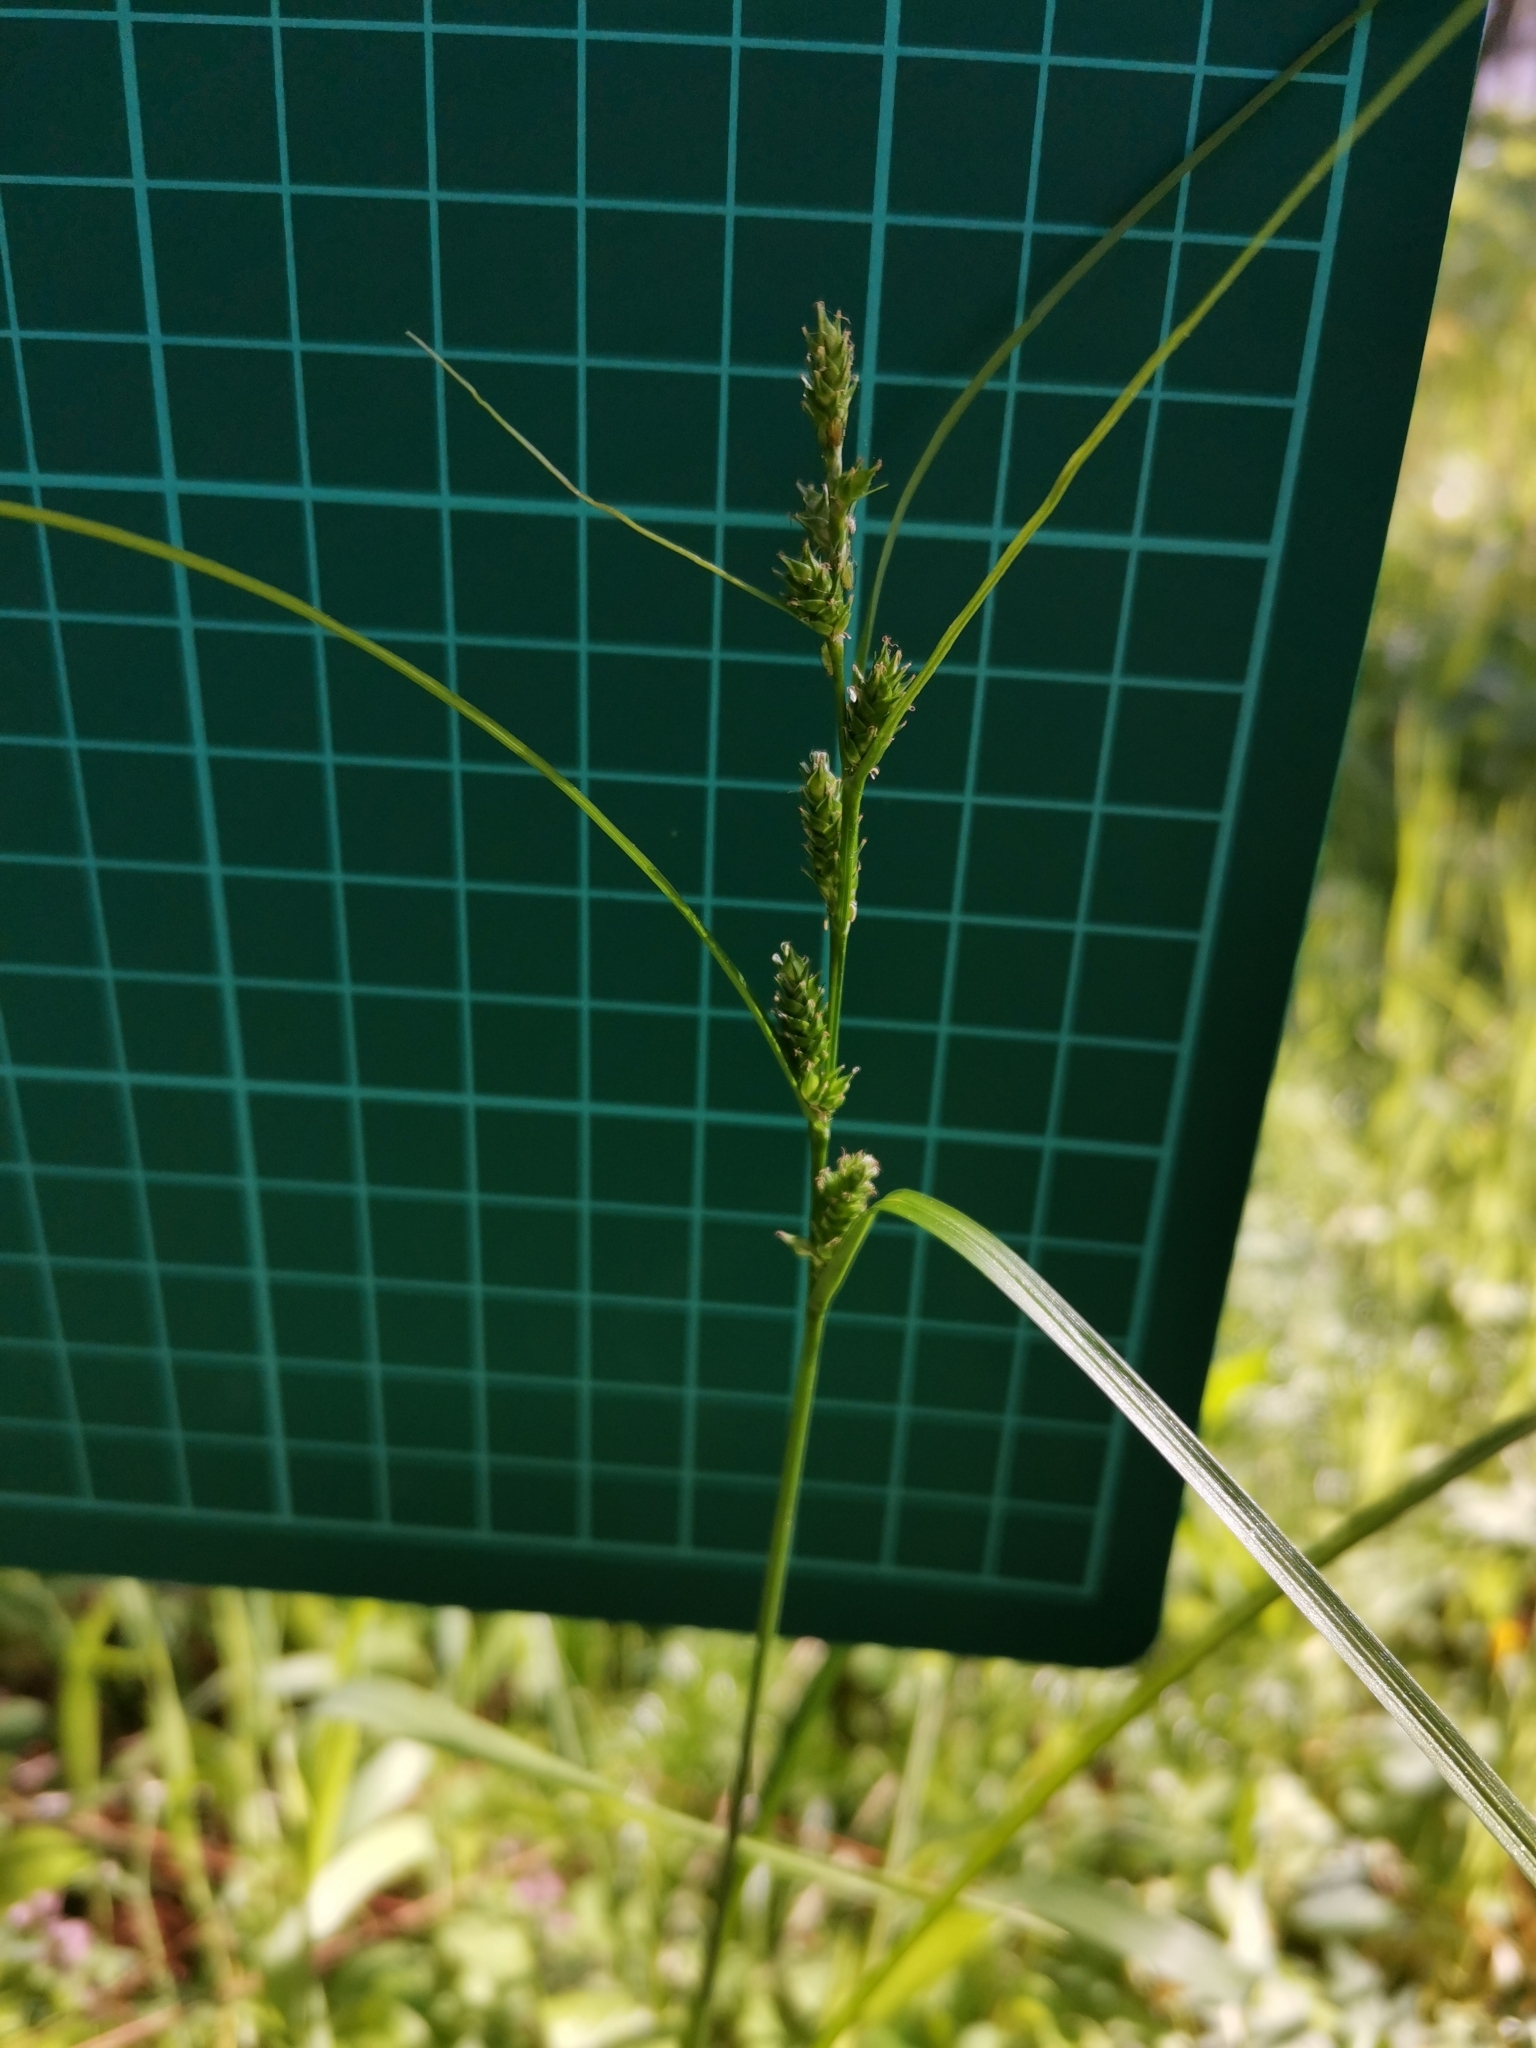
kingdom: Plantae
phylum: Tracheophyta
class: Liliopsida
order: Poales
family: Cyperaceae
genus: Carex
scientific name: Carex gibba
